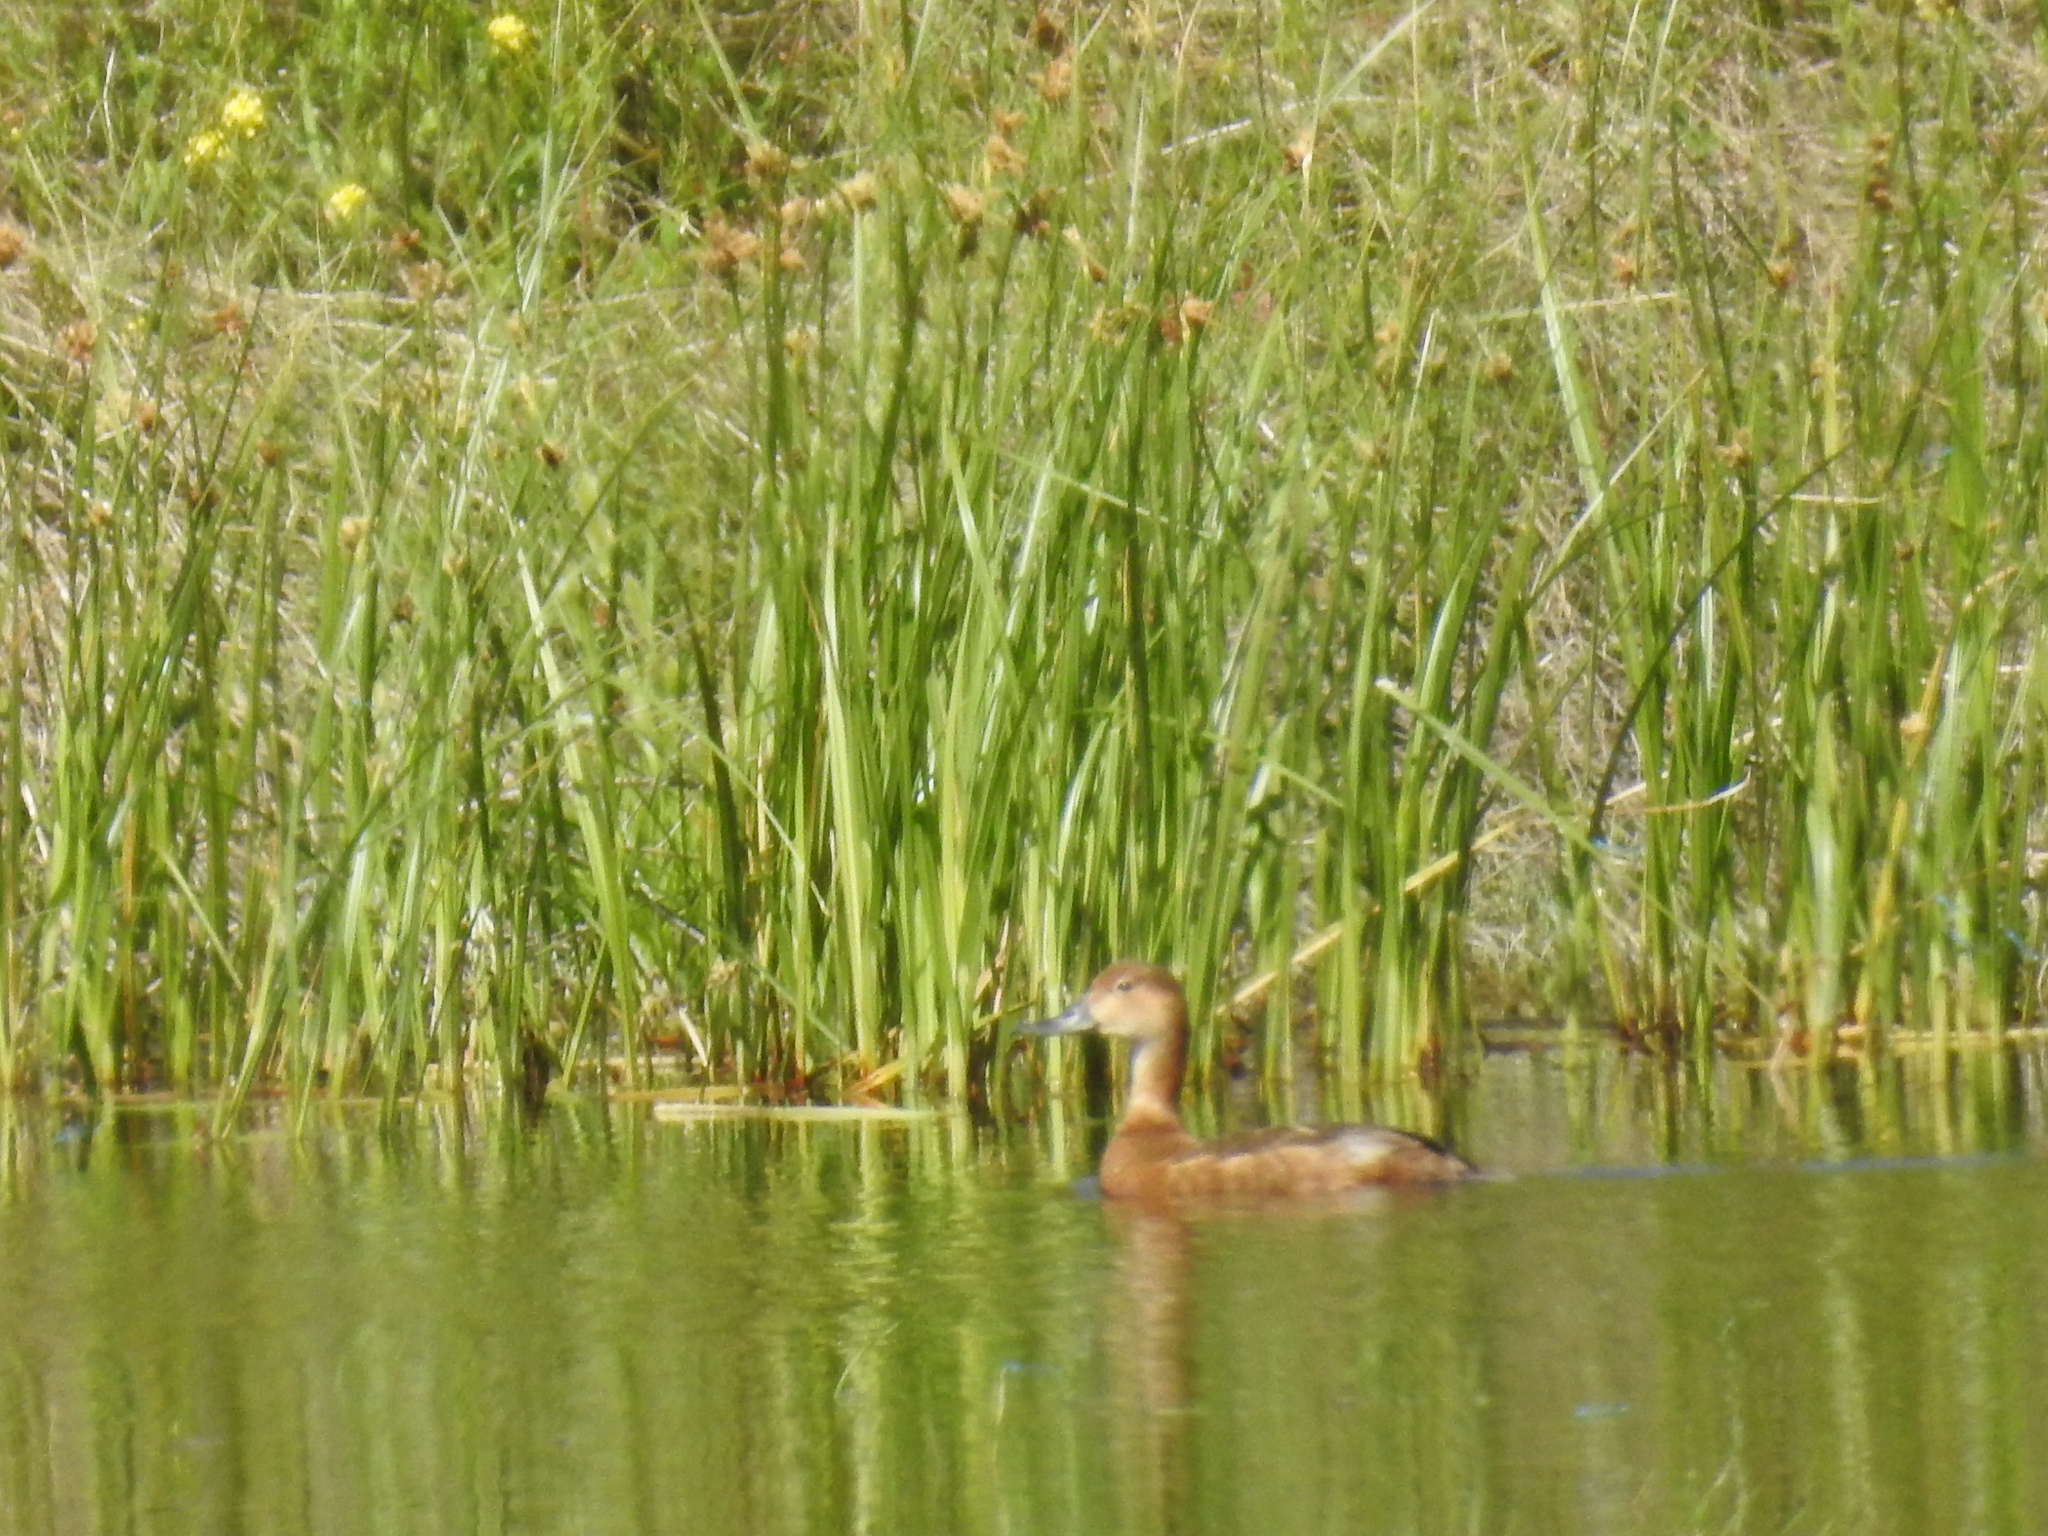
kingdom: Animalia
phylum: Chordata
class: Aves
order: Anseriformes
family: Anatidae
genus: Aythya
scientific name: Aythya americana
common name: Redhead
